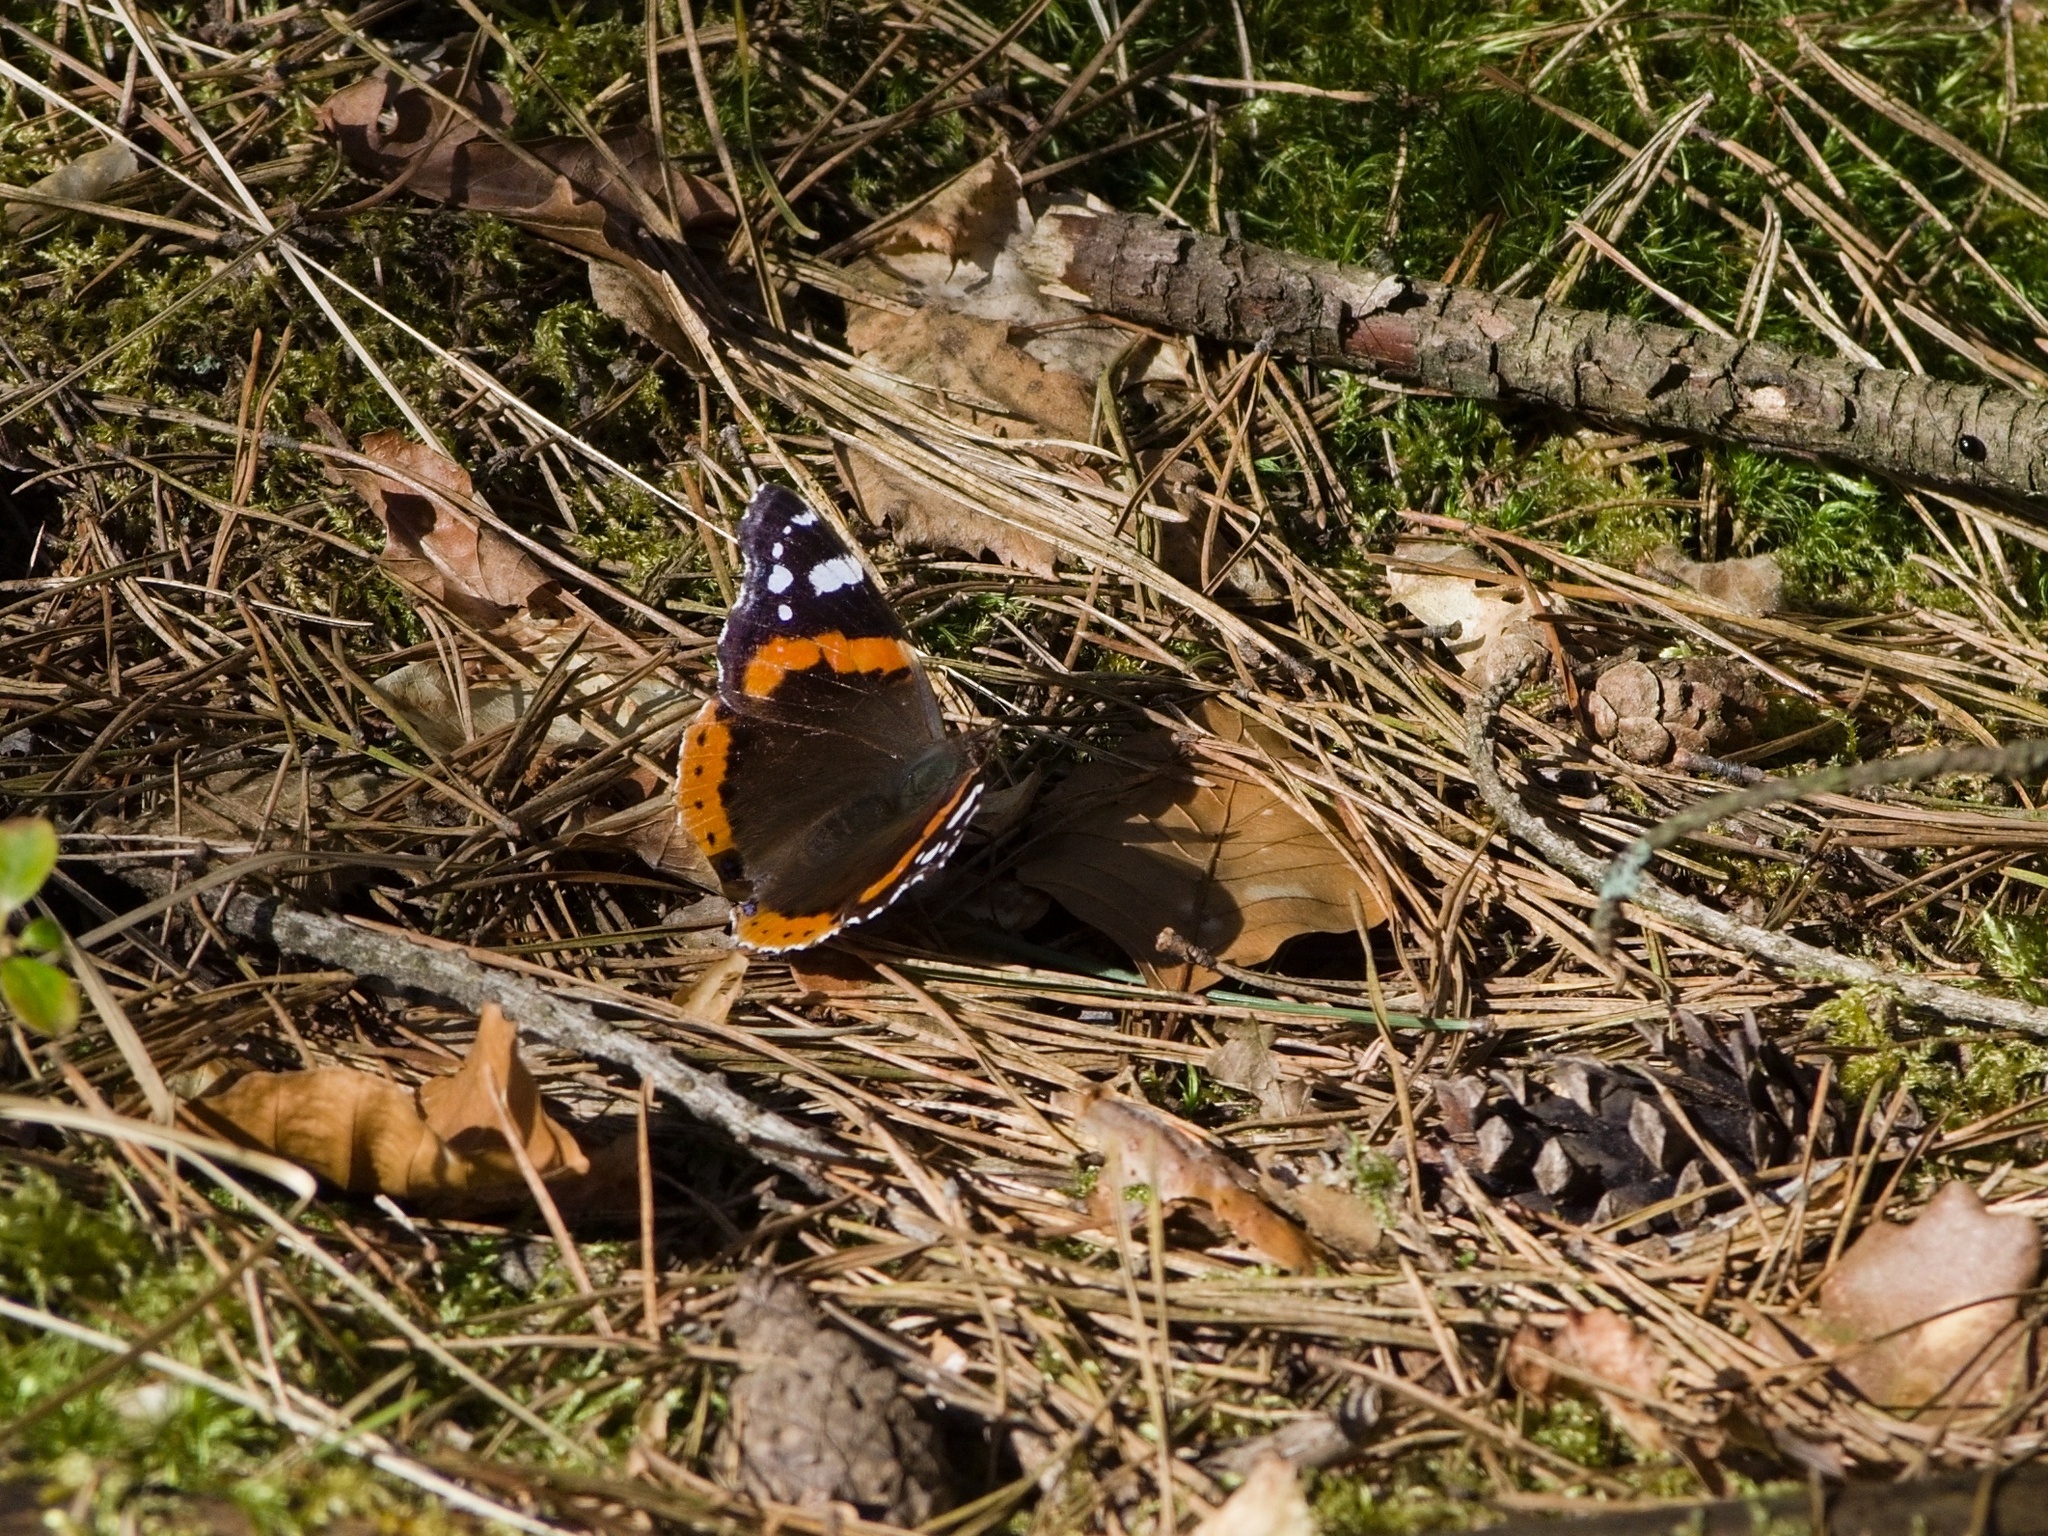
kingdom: Animalia
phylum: Arthropoda
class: Insecta
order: Lepidoptera
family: Nymphalidae
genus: Vanessa
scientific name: Vanessa atalanta
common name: Red admiral
